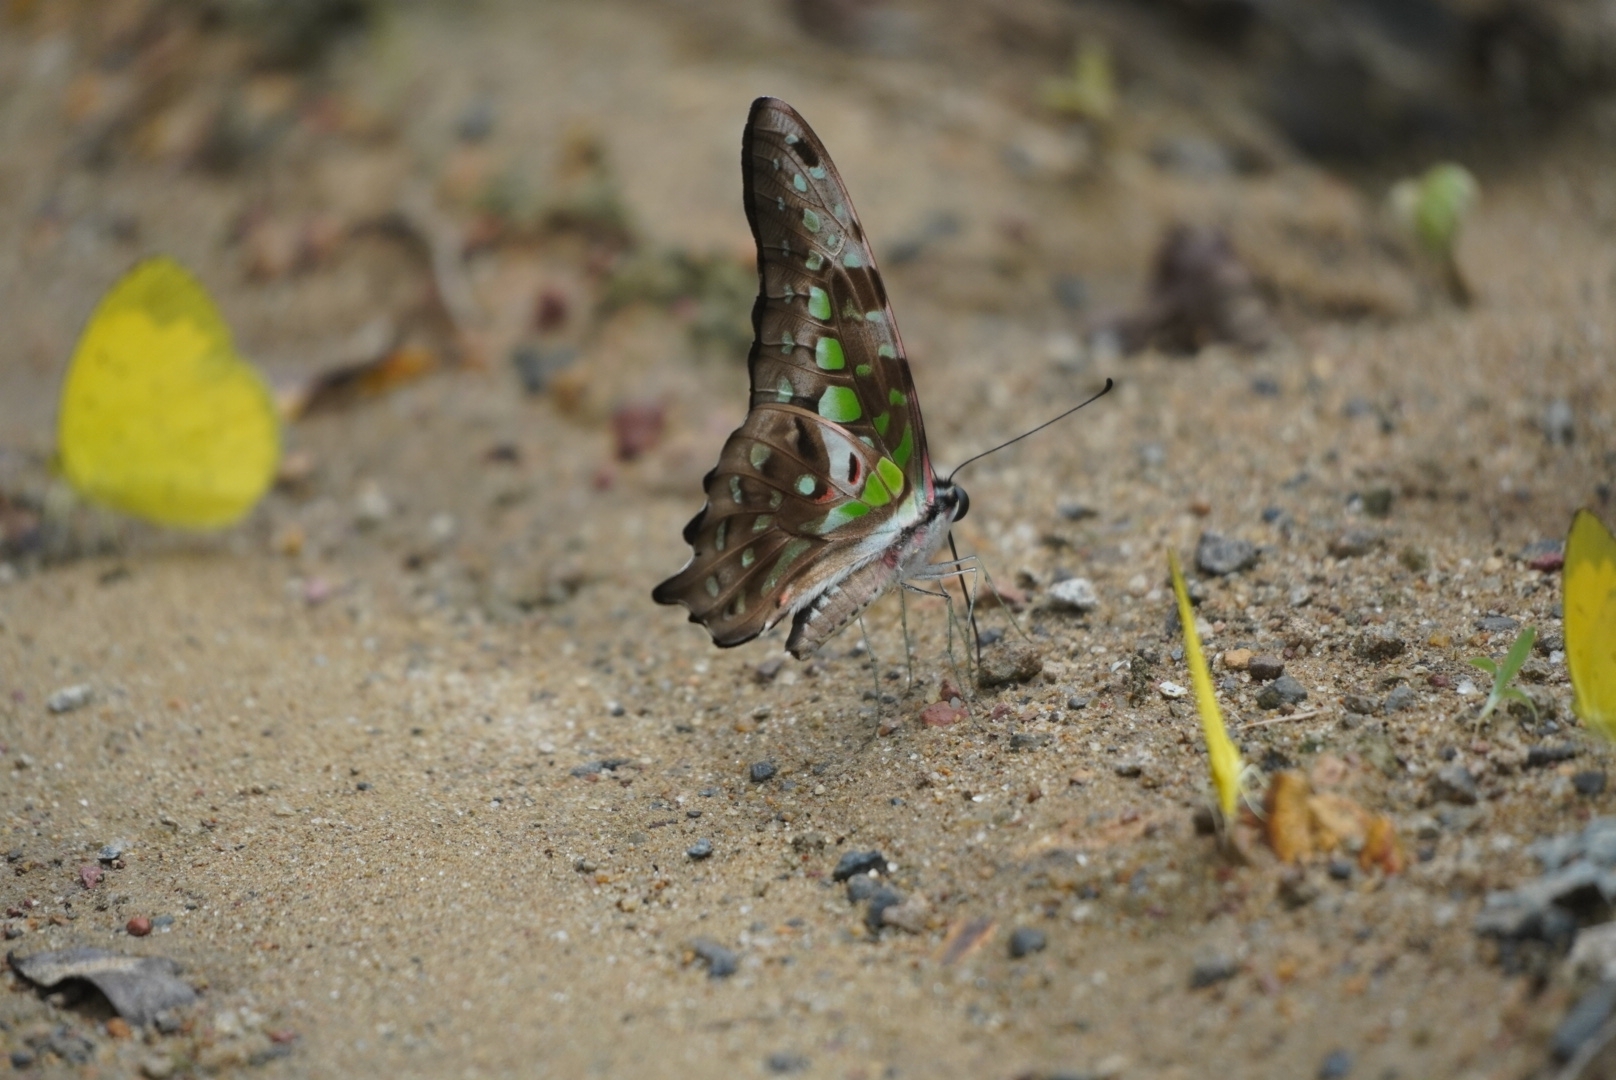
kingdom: Animalia
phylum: Arthropoda
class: Insecta
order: Lepidoptera
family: Papilionidae
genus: Graphium
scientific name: Graphium agamemnon
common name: Tailed jay
